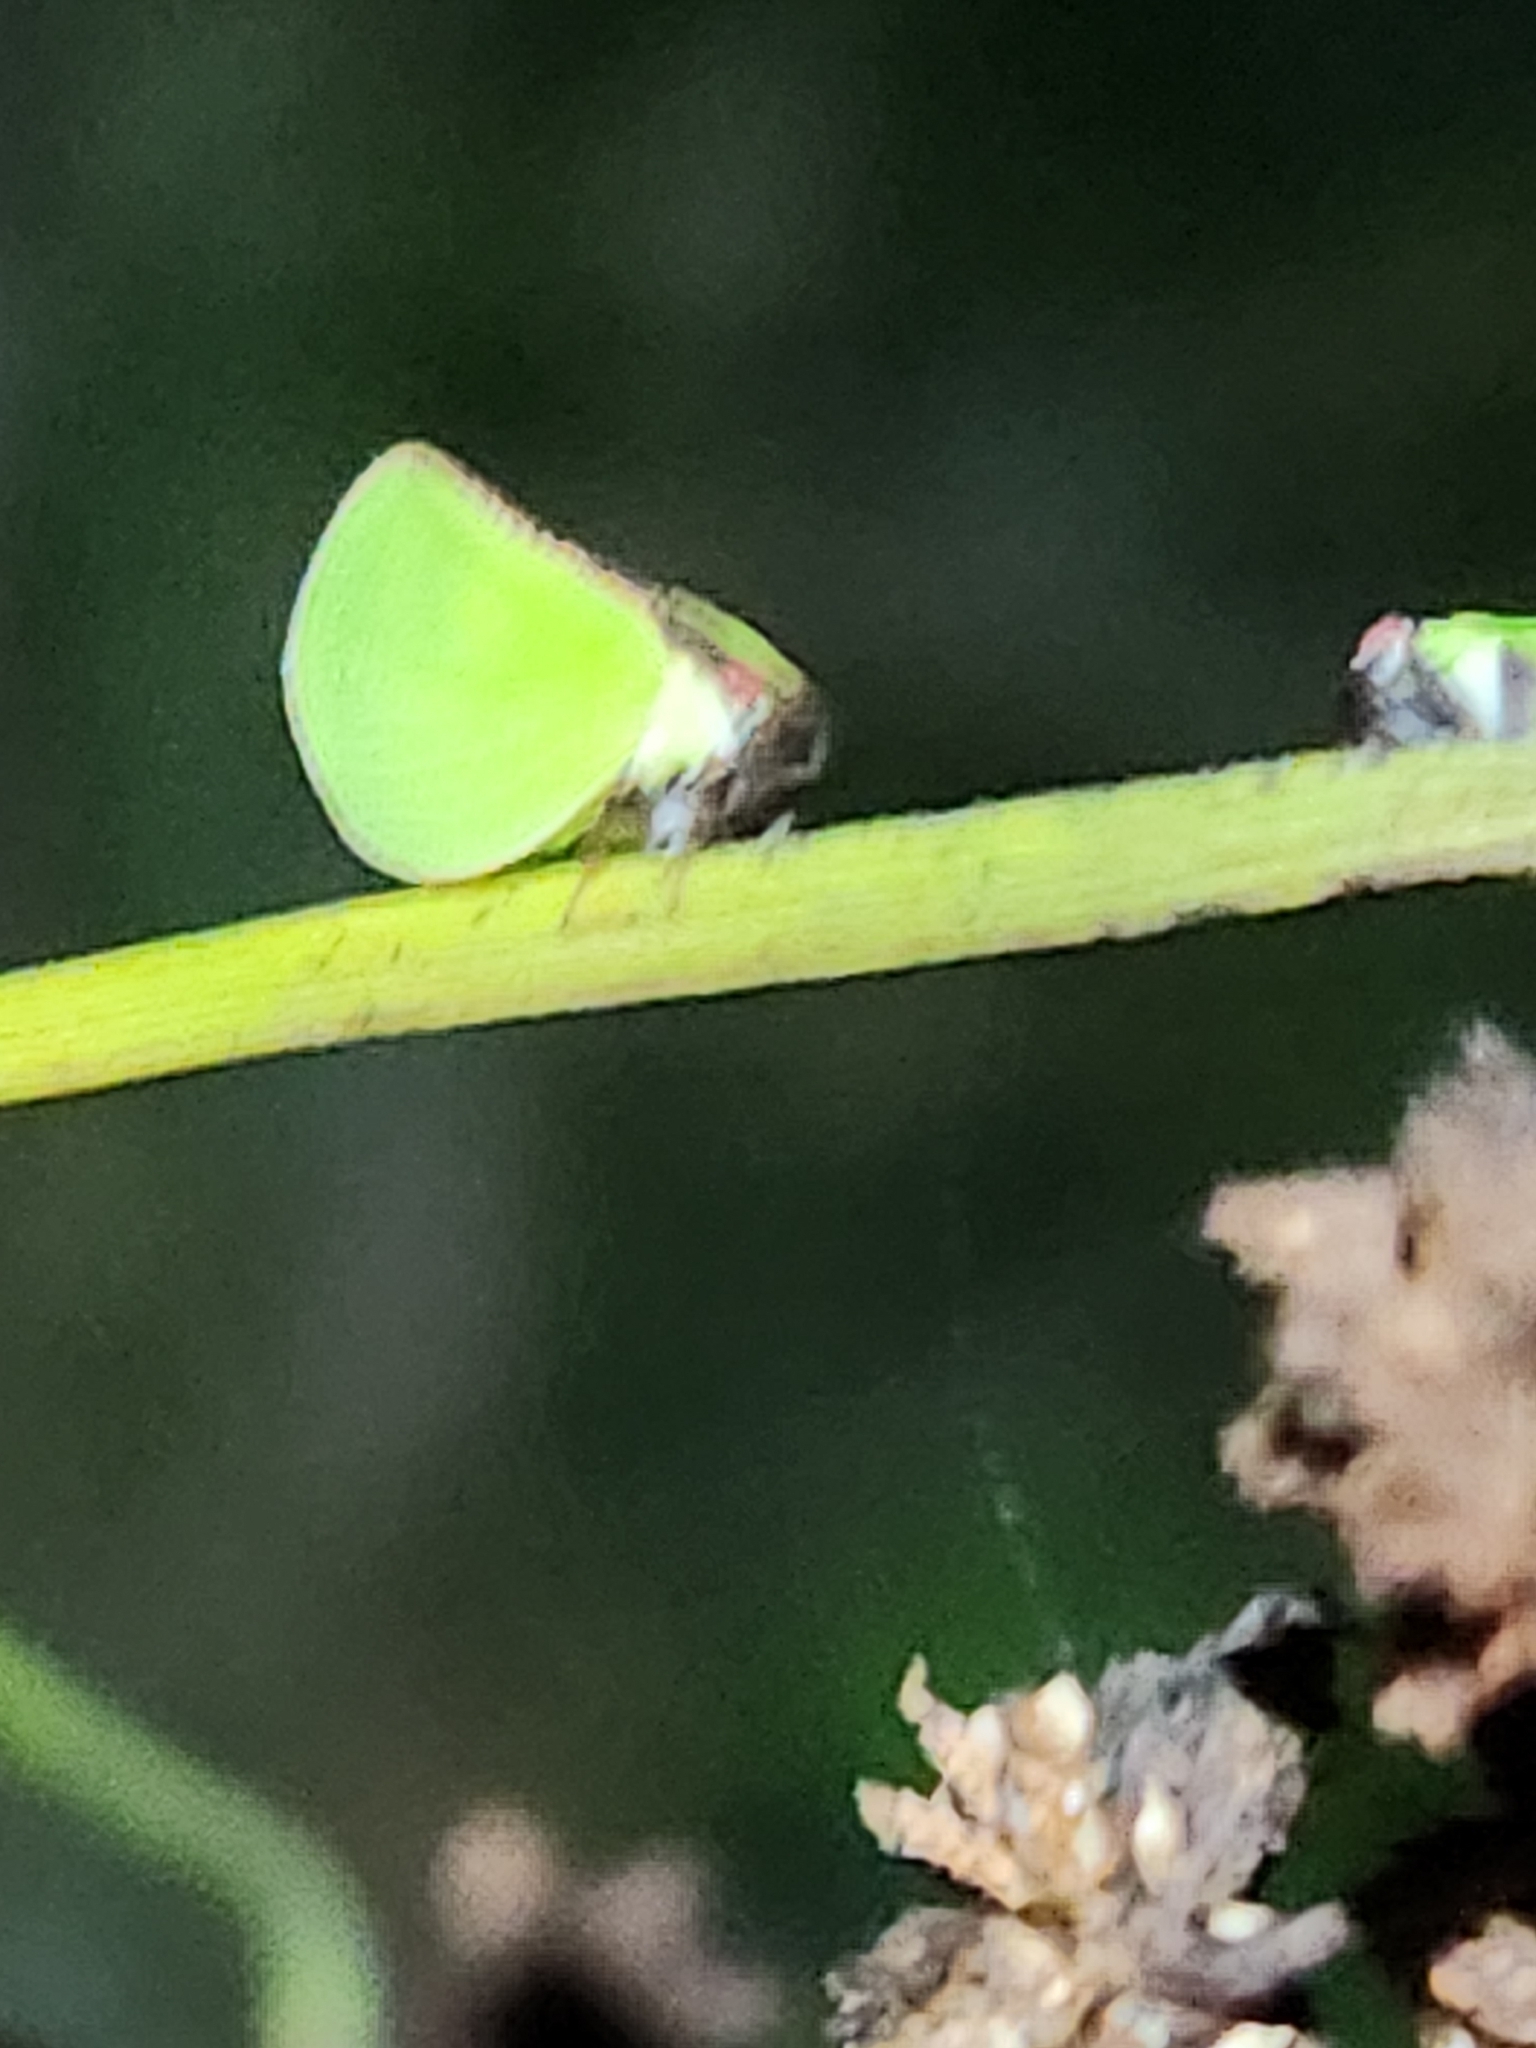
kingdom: Animalia
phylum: Arthropoda
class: Insecta
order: Hemiptera
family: Acanaloniidae
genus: Acanalonia
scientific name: Acanalonia bivittata
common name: Two-striped planthopper
